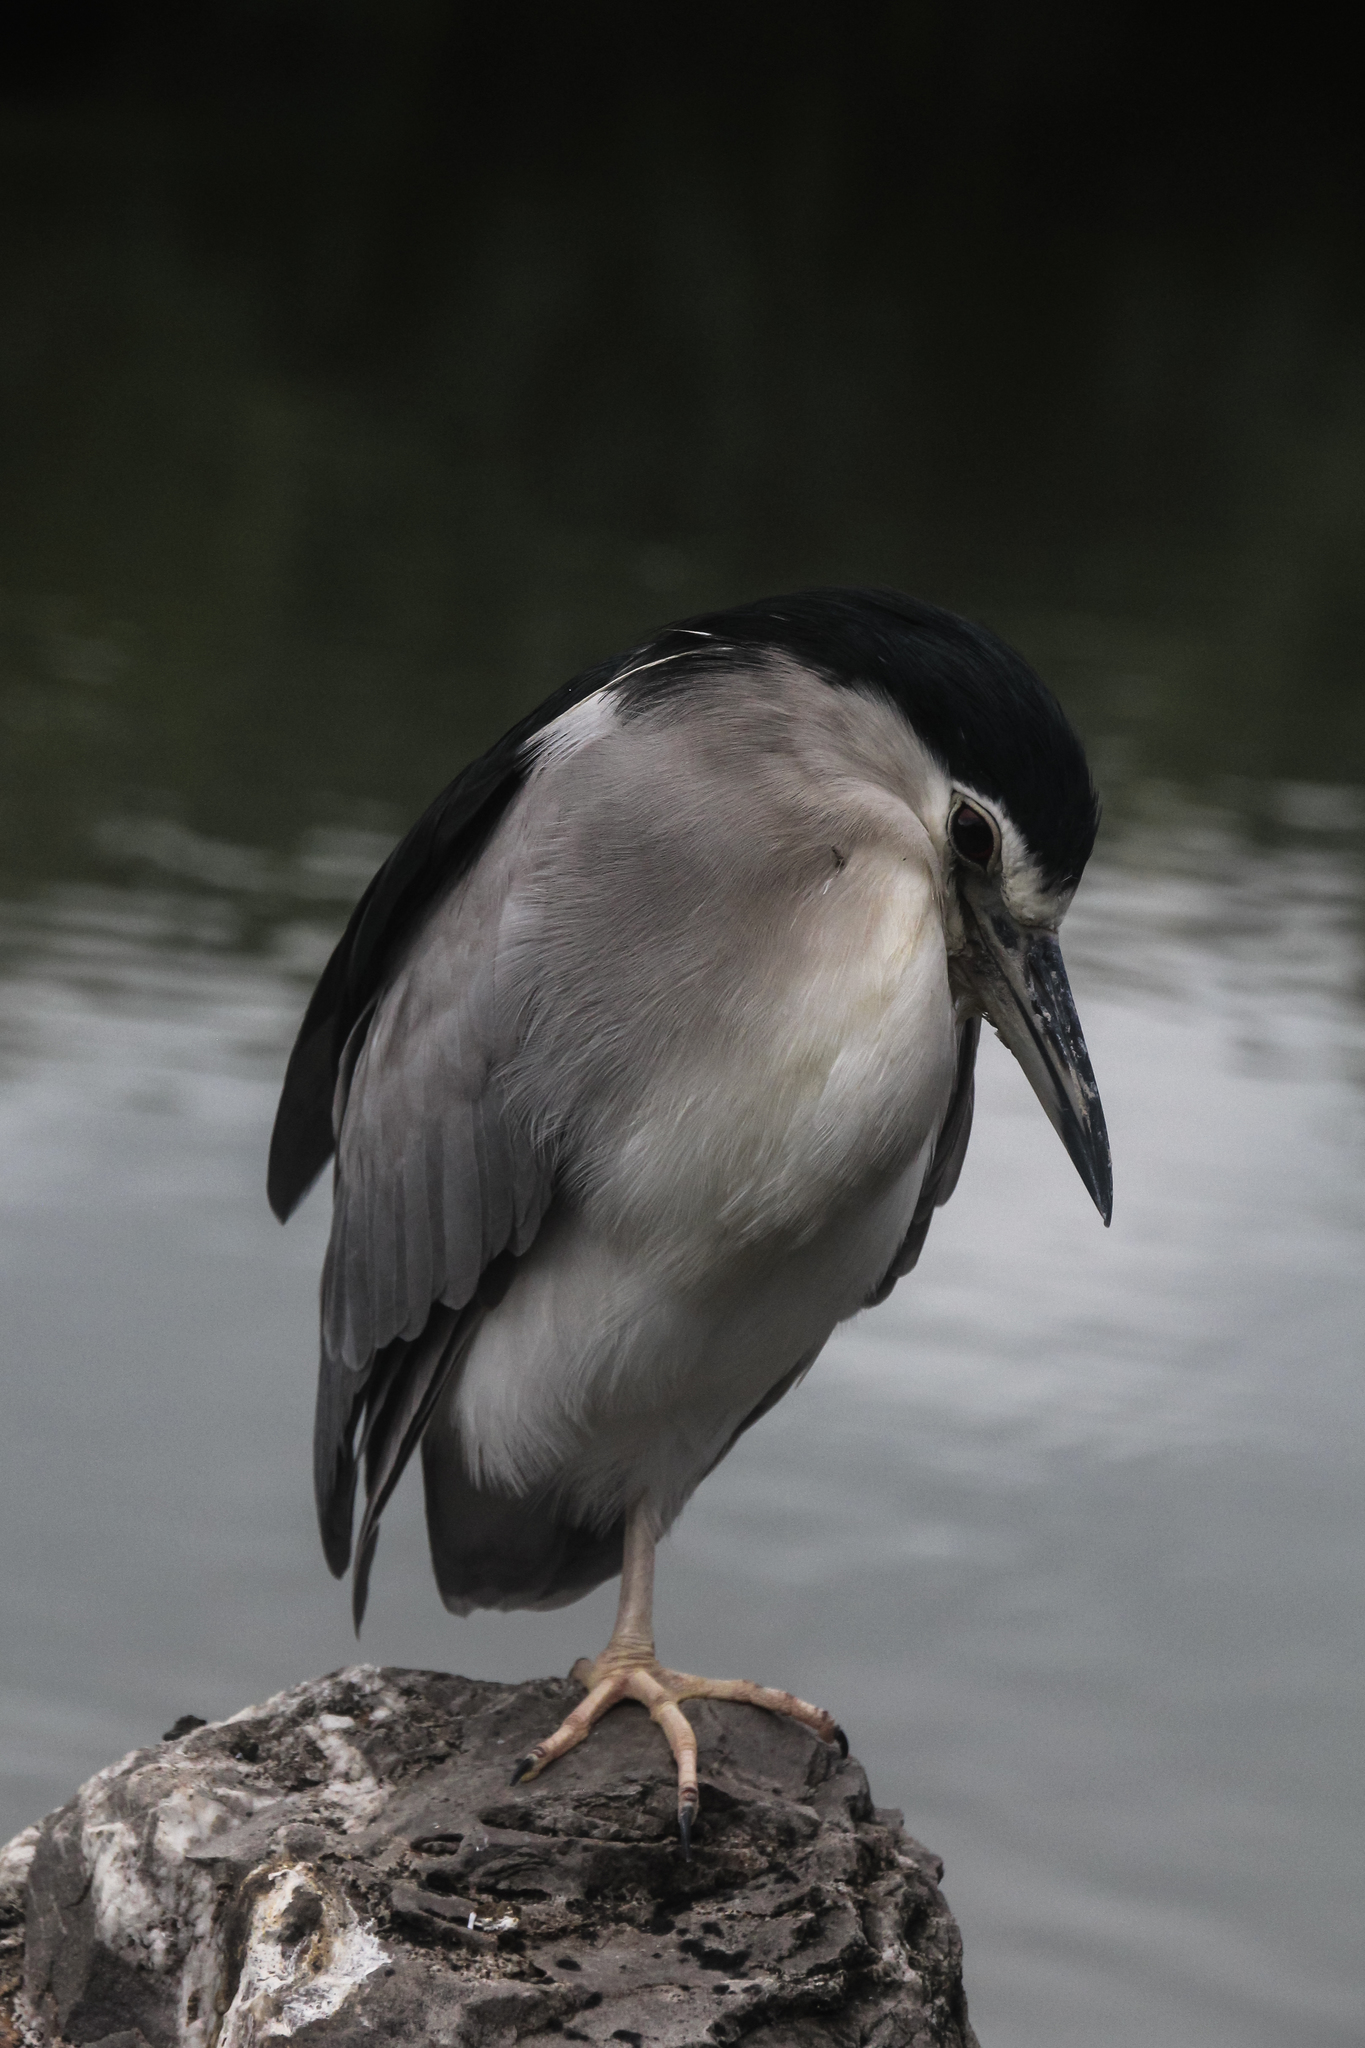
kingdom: Animalia
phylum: Chordata
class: Aves
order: Pelecaniformes
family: Ardeidae
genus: Nycticorax
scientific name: Nycticorax nycticorax
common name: Black-crowned night heron
